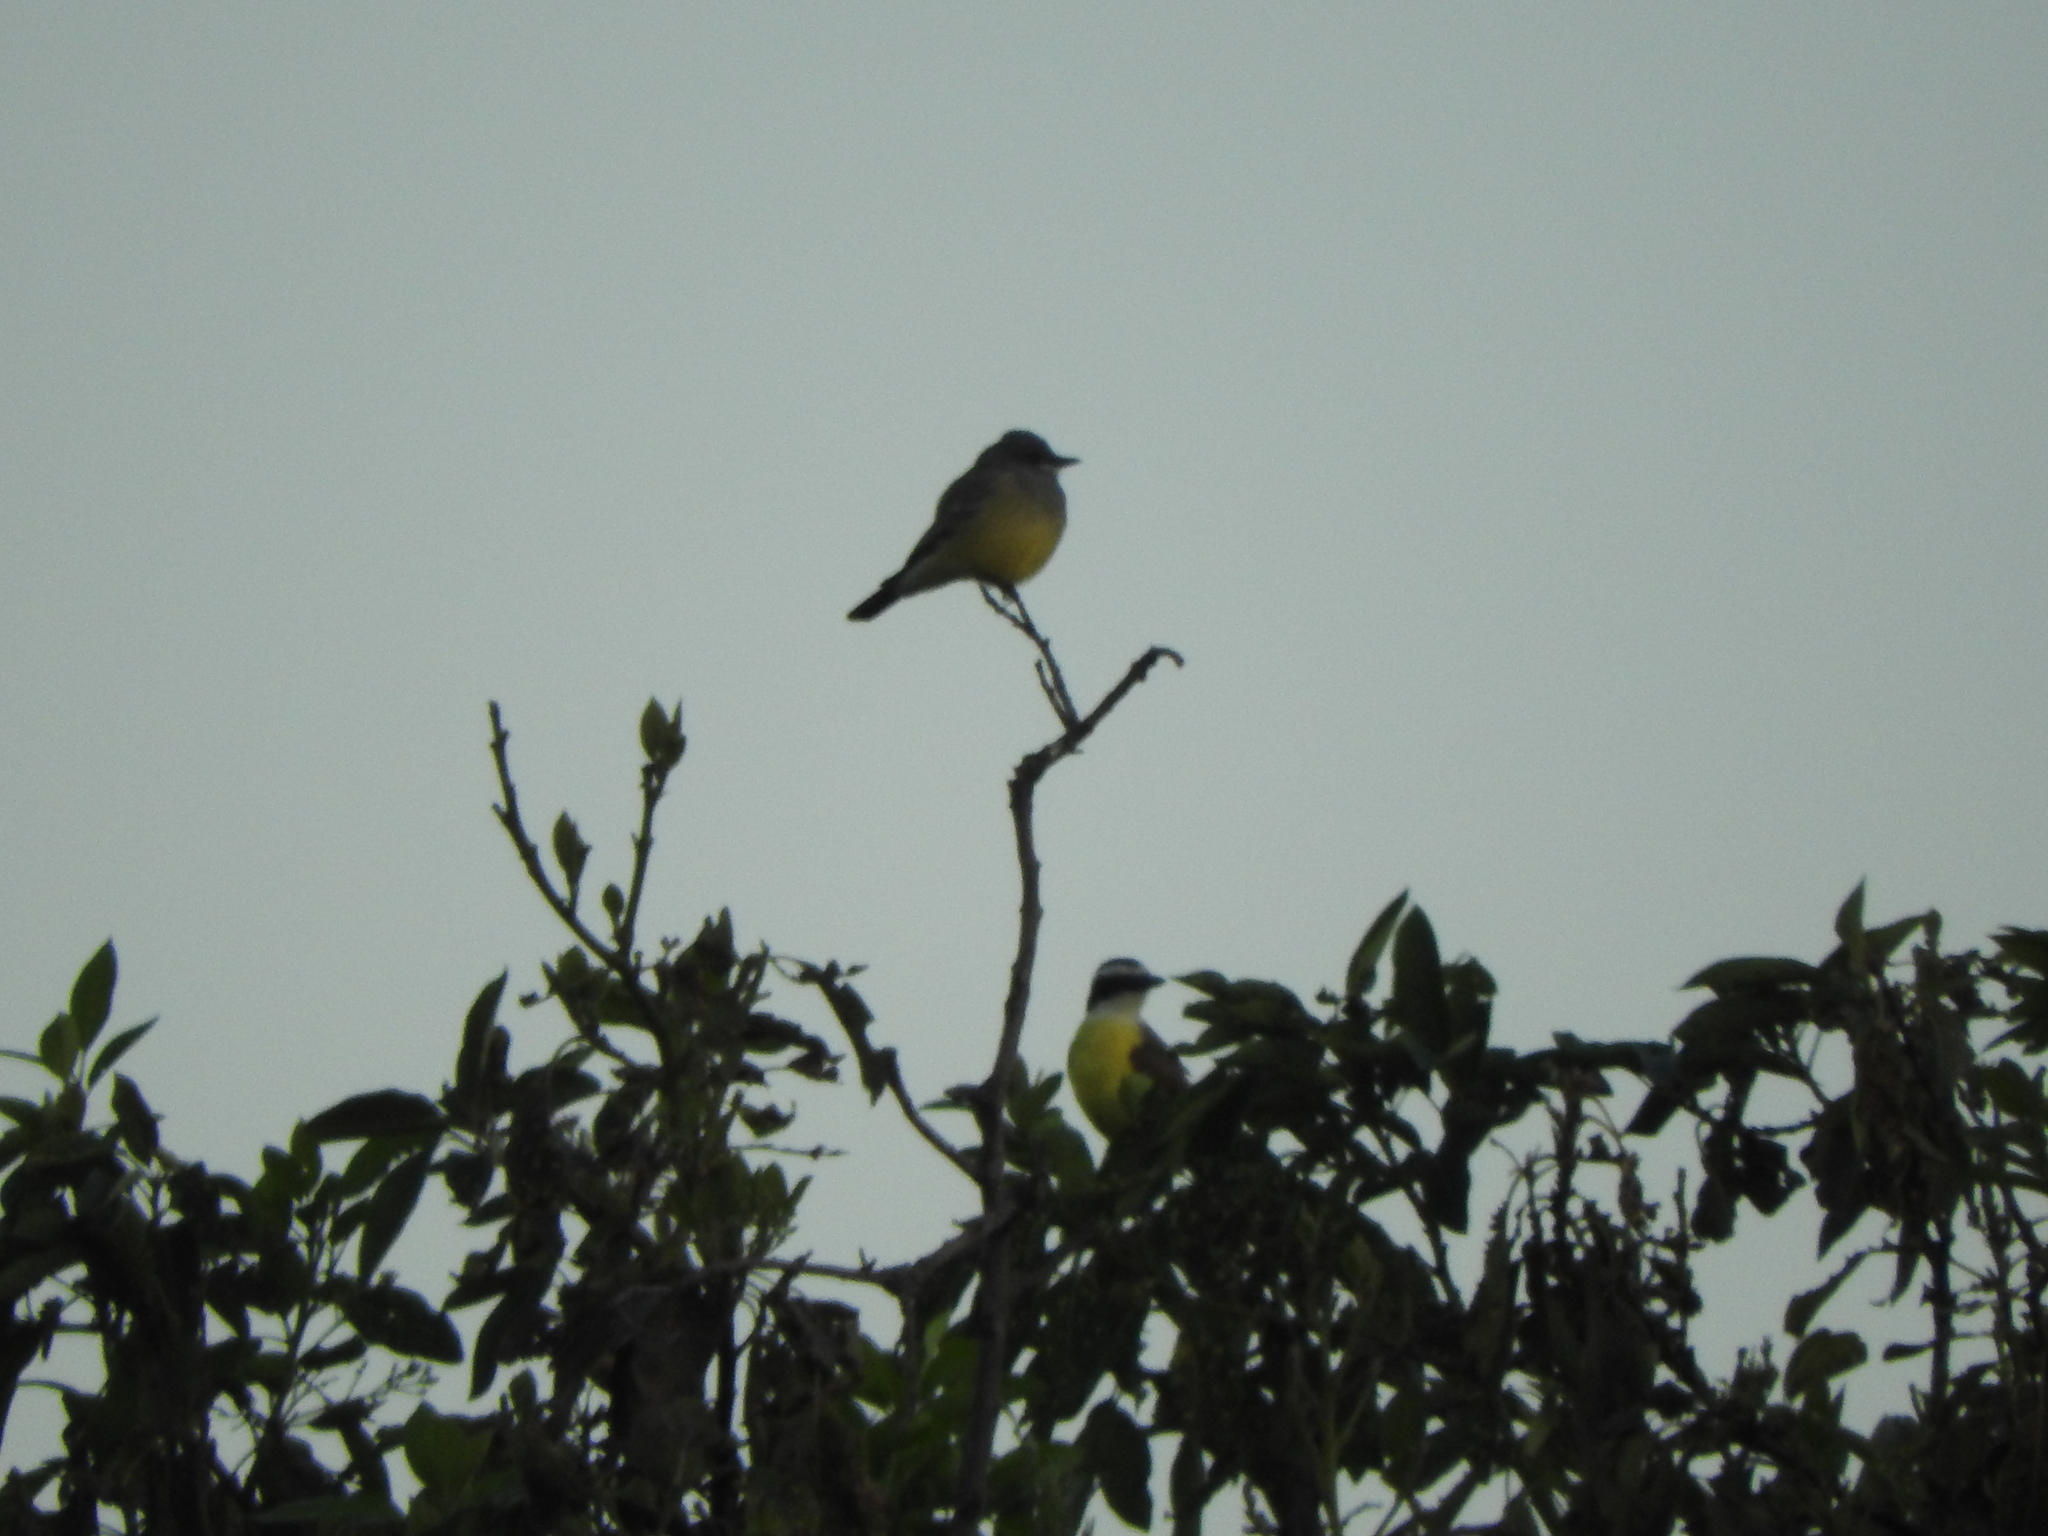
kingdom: Animalia
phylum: Chordata
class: Aves
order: Passeriformes
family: Tyrannidae
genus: Pitangus
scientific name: Pitangus sulphuratus
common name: Great kiskadee
